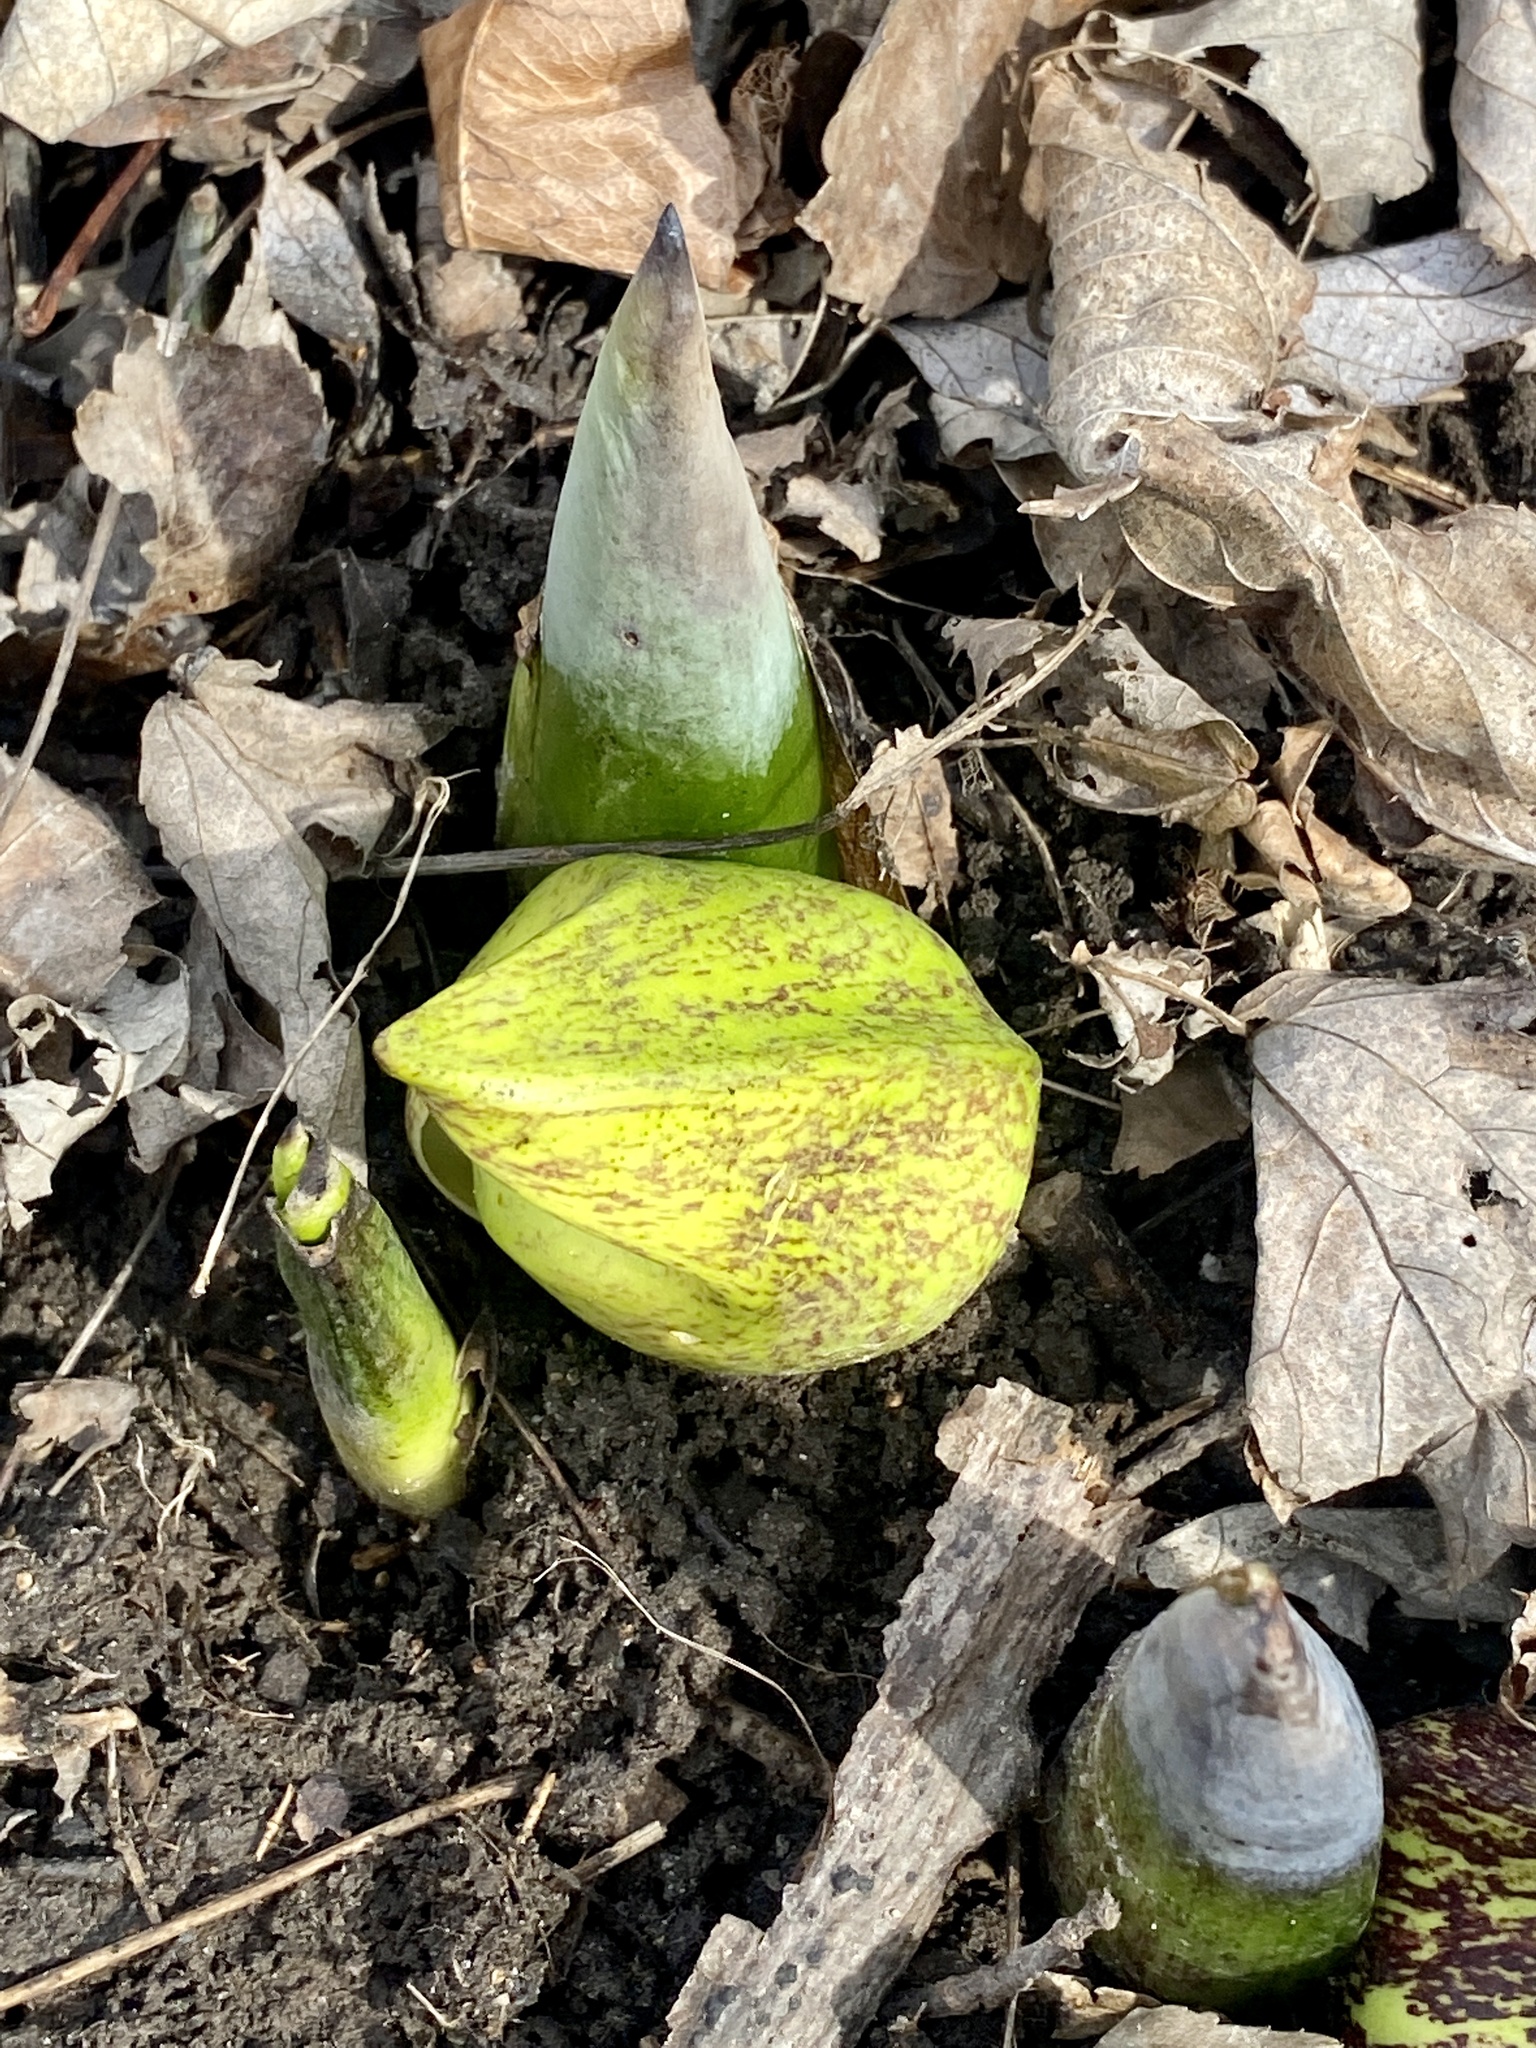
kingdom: Plantae
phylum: Tracheophyta
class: Liliopsida
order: Alismatales
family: Araceae
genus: Symplocarpus
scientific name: Symplocarpus foetidus
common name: Eastern skunk cabbage
